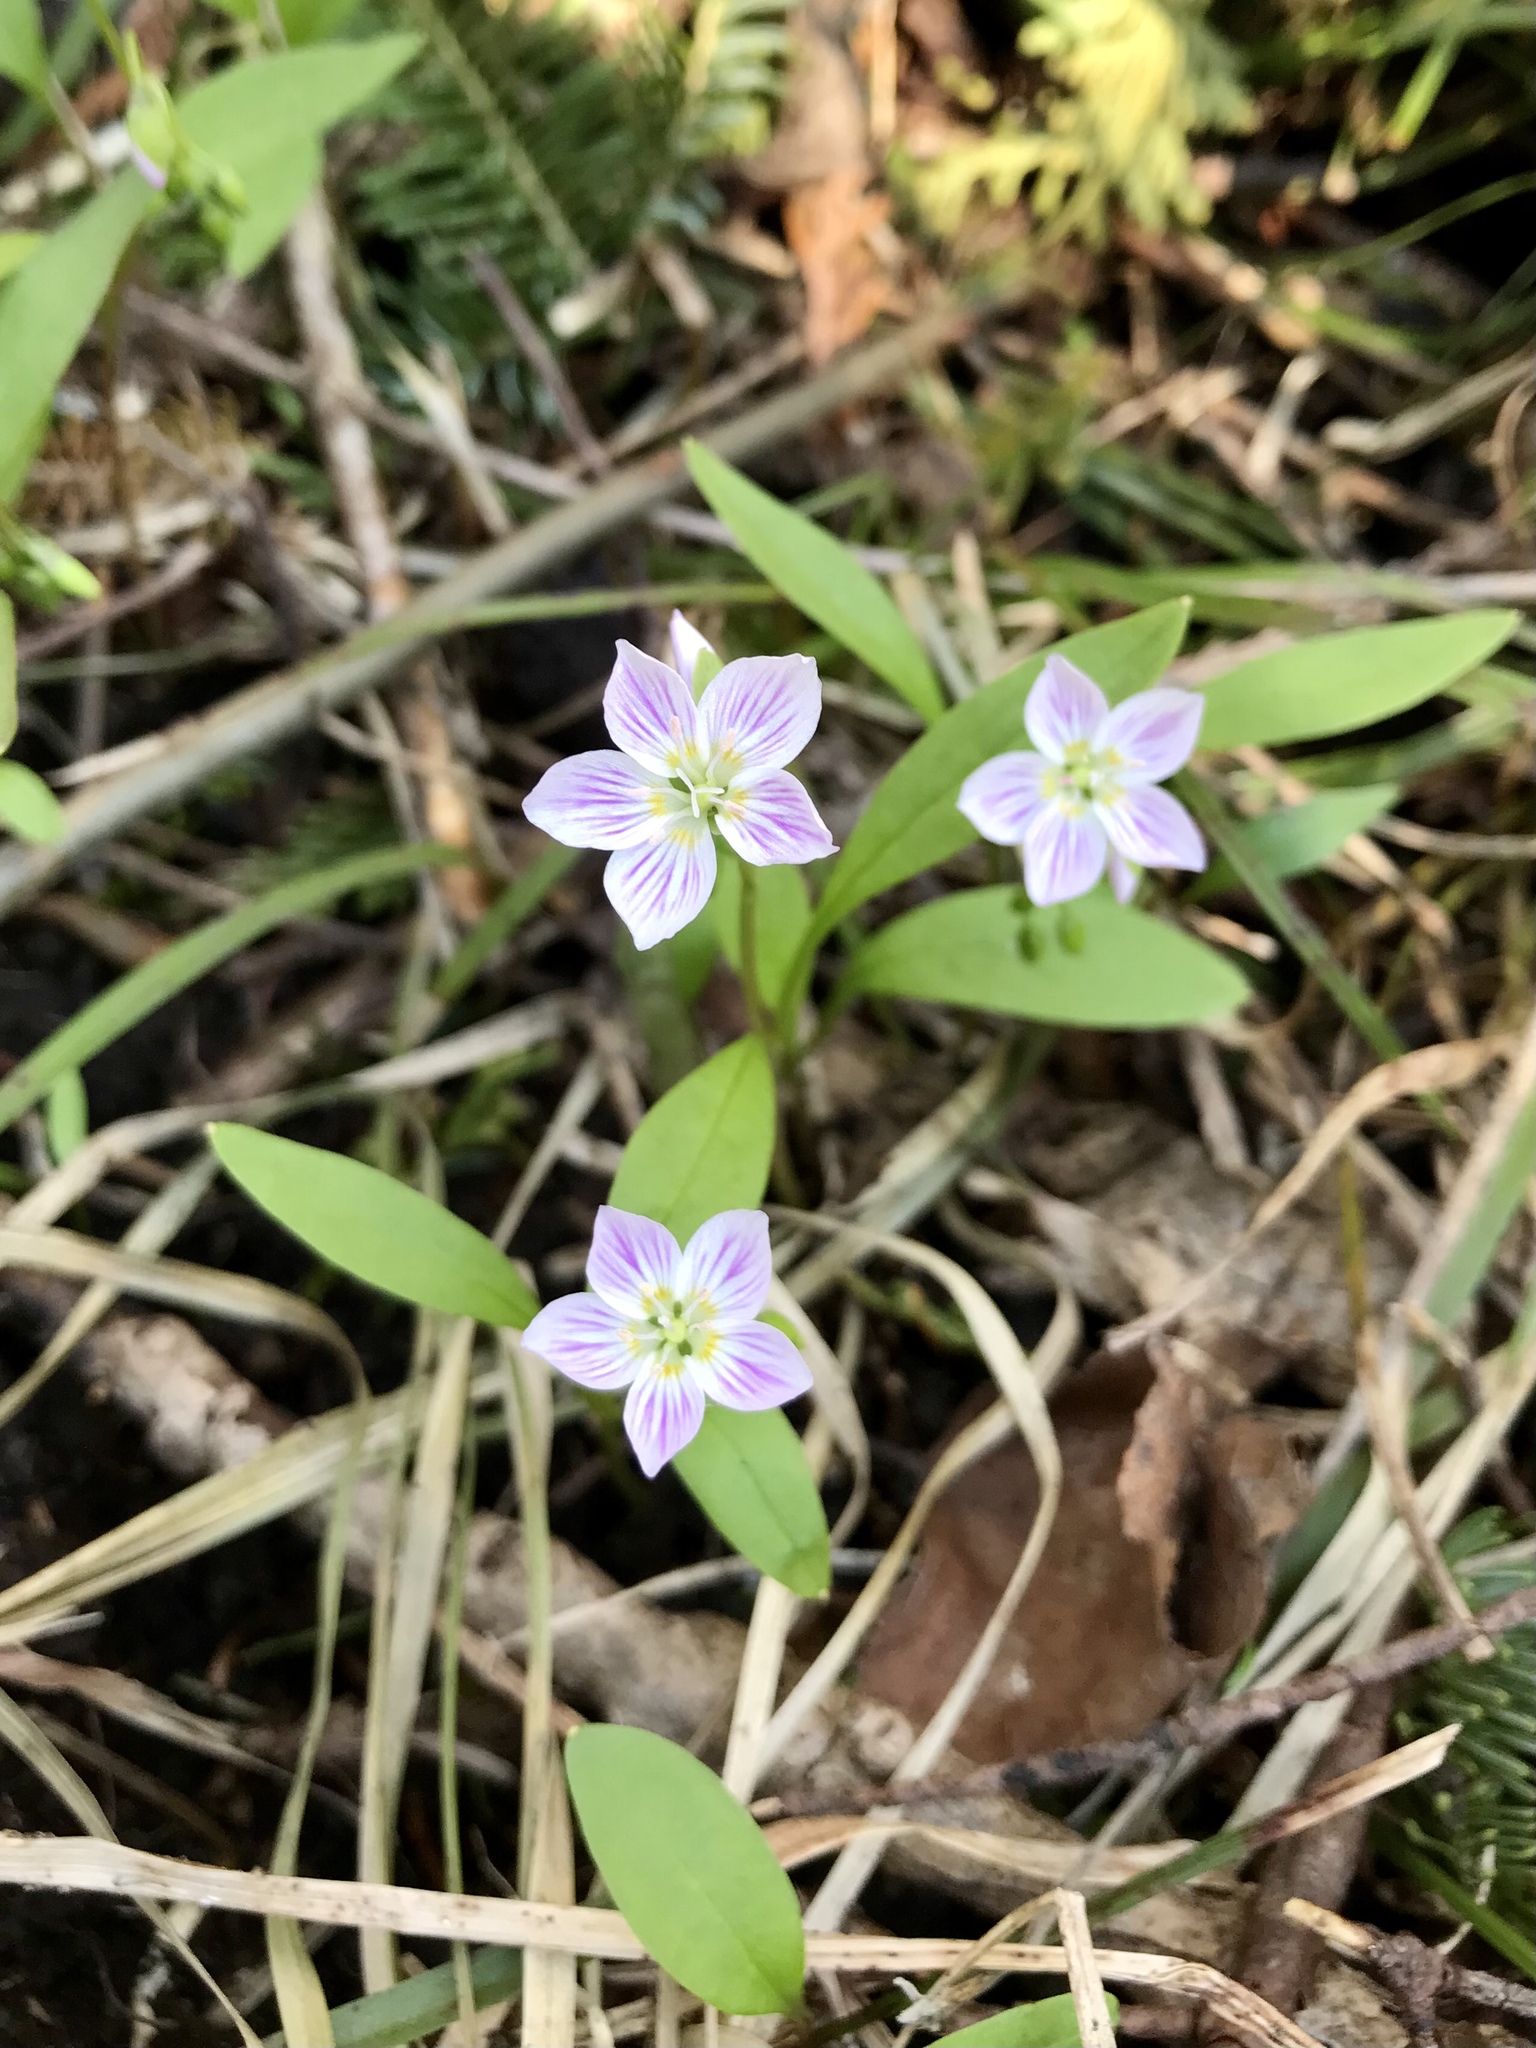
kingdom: Plantae
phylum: Tracheophyta
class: Magnoliopsida
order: Caryophyllales
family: Montiaceae
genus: Claytonia
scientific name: Claytonia caroliniana
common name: Carolina spring beauty
